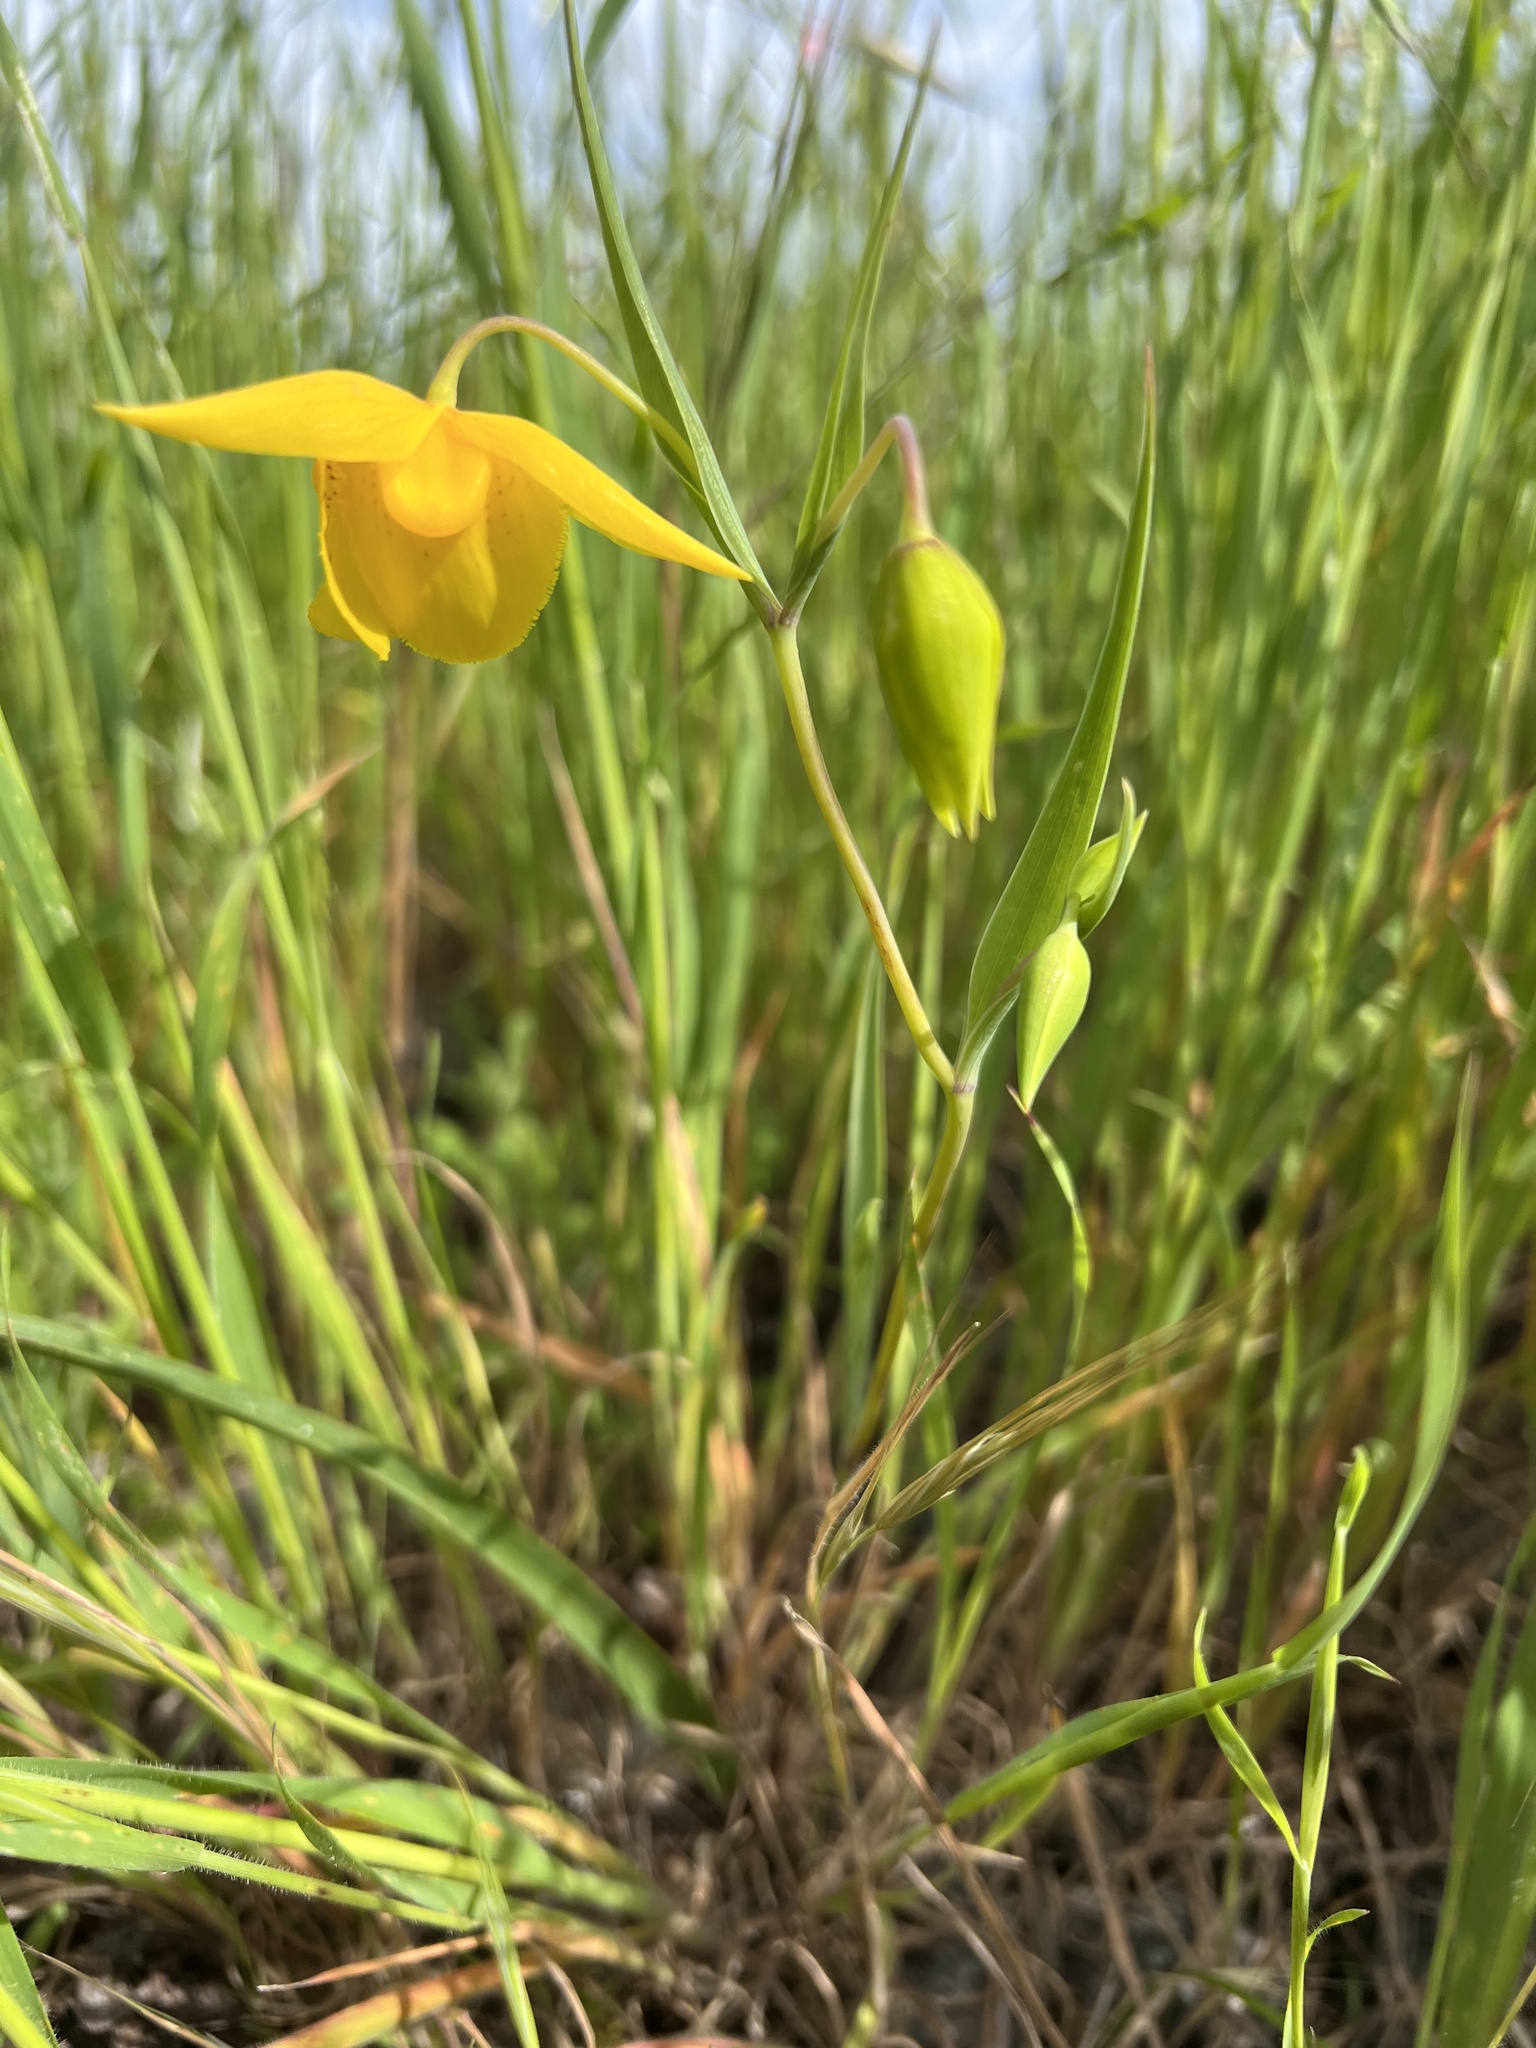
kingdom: Plantae
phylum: Tracheophyta
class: Liliopsida
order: Liliales
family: Liliaceae
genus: Calochortus
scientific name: Calochortus amabilis
